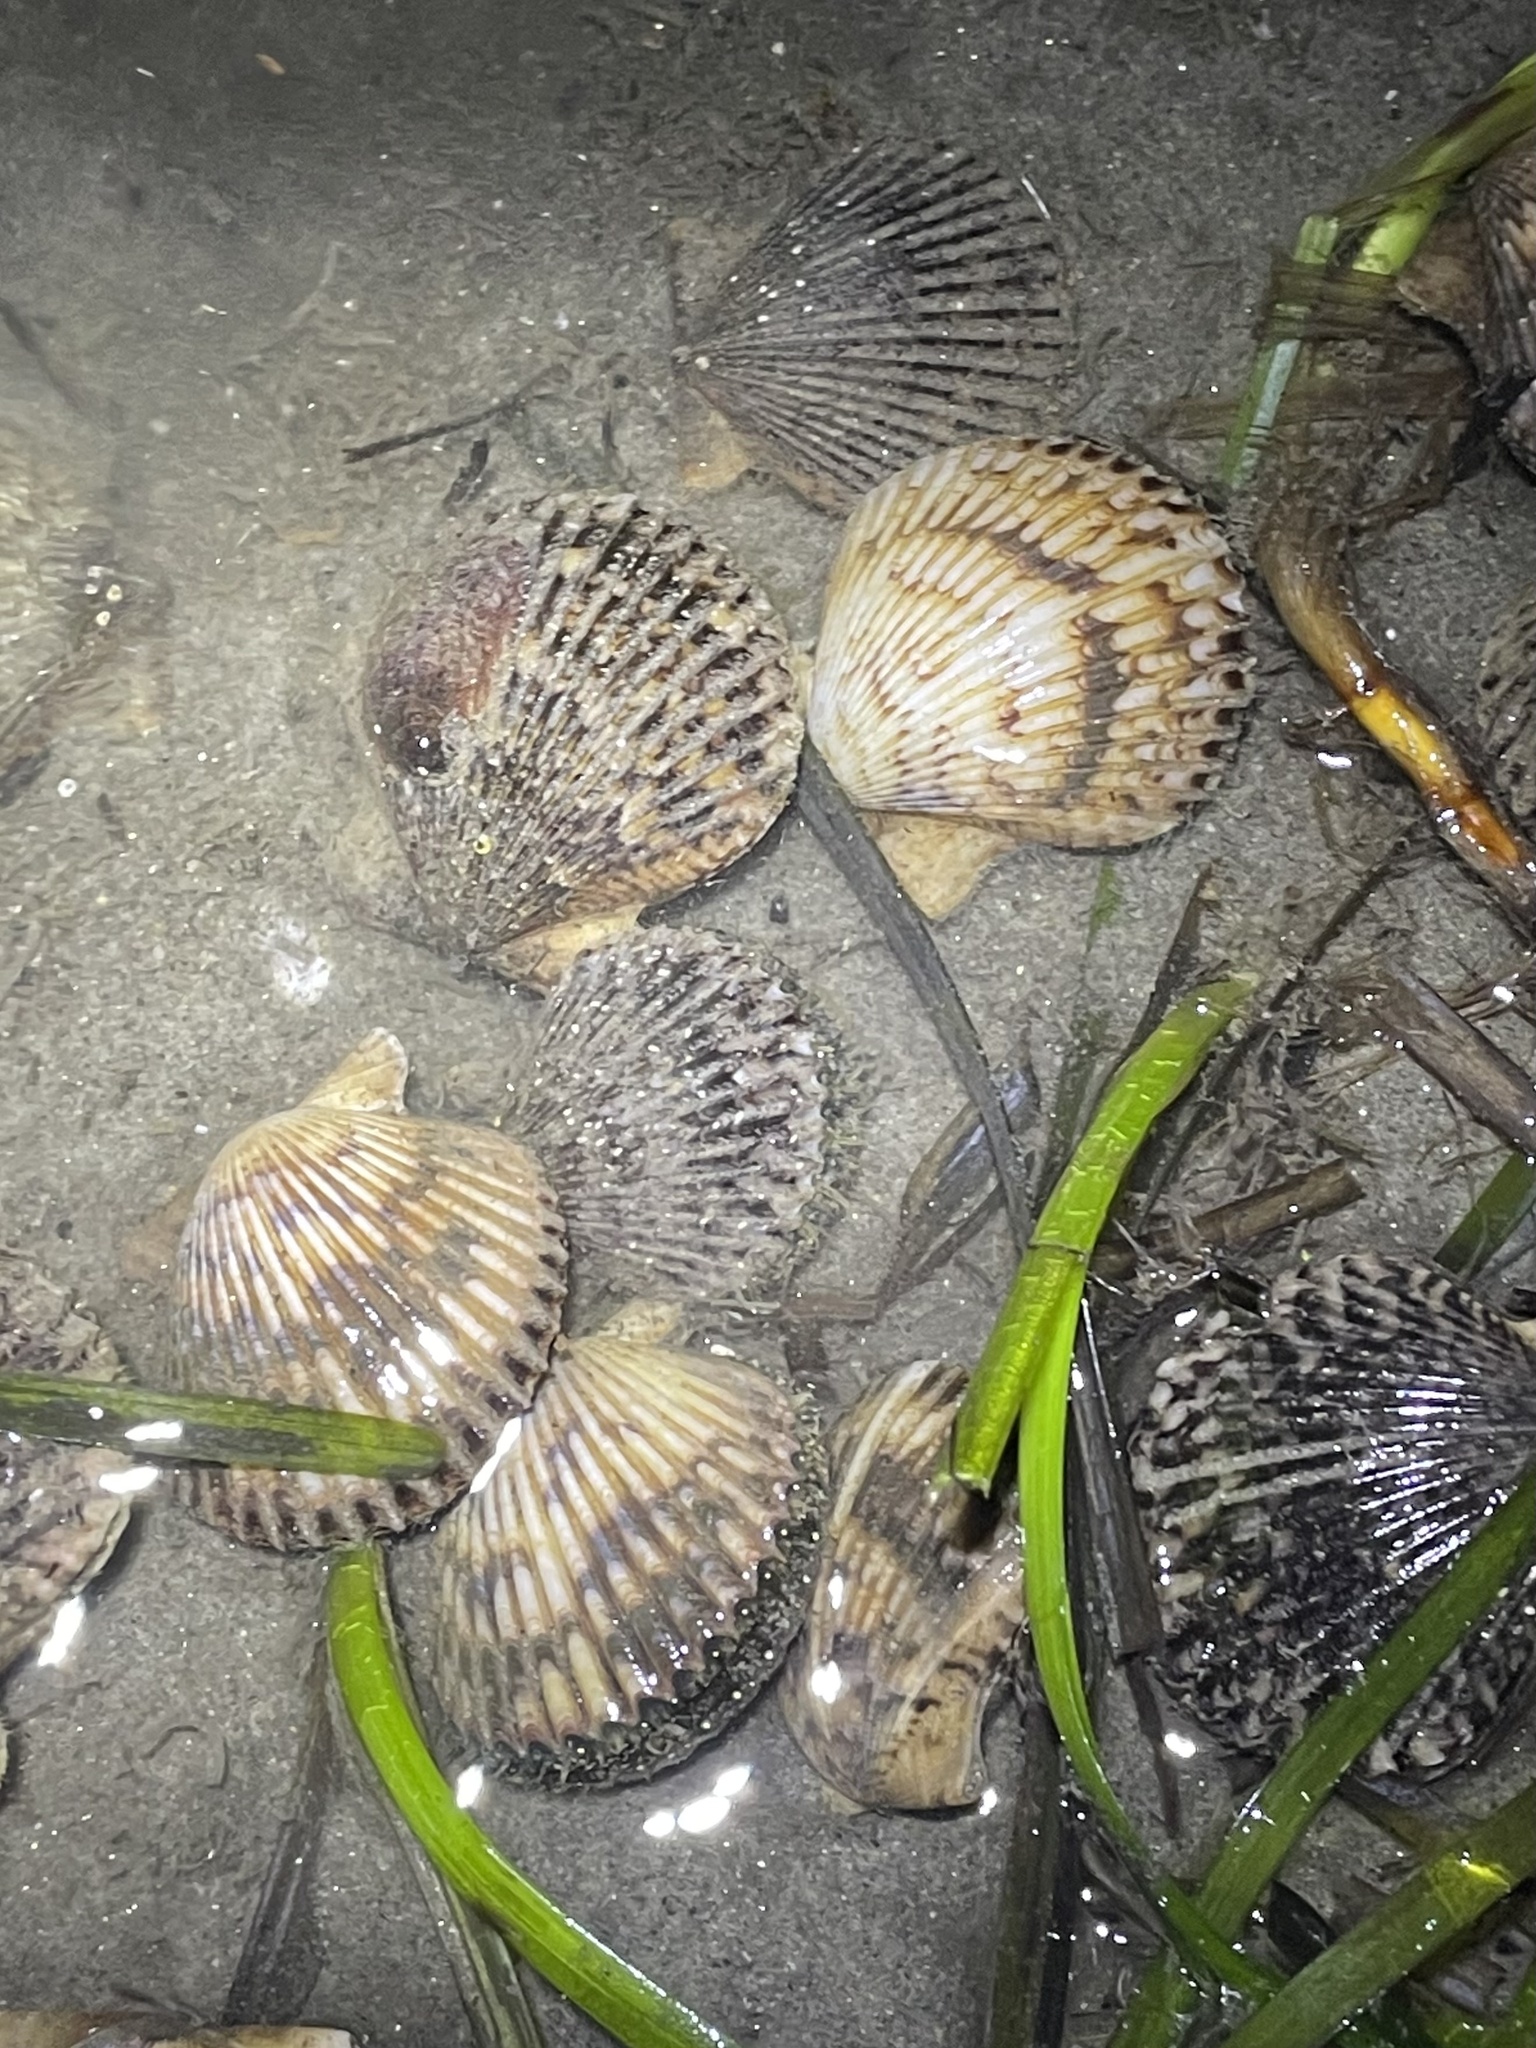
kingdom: Animalia
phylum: Mollusca
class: Bivalvia
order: Pectinida
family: Pectinidae
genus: Argopecten
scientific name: Argopecten ventricosus
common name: Catarina scallop
